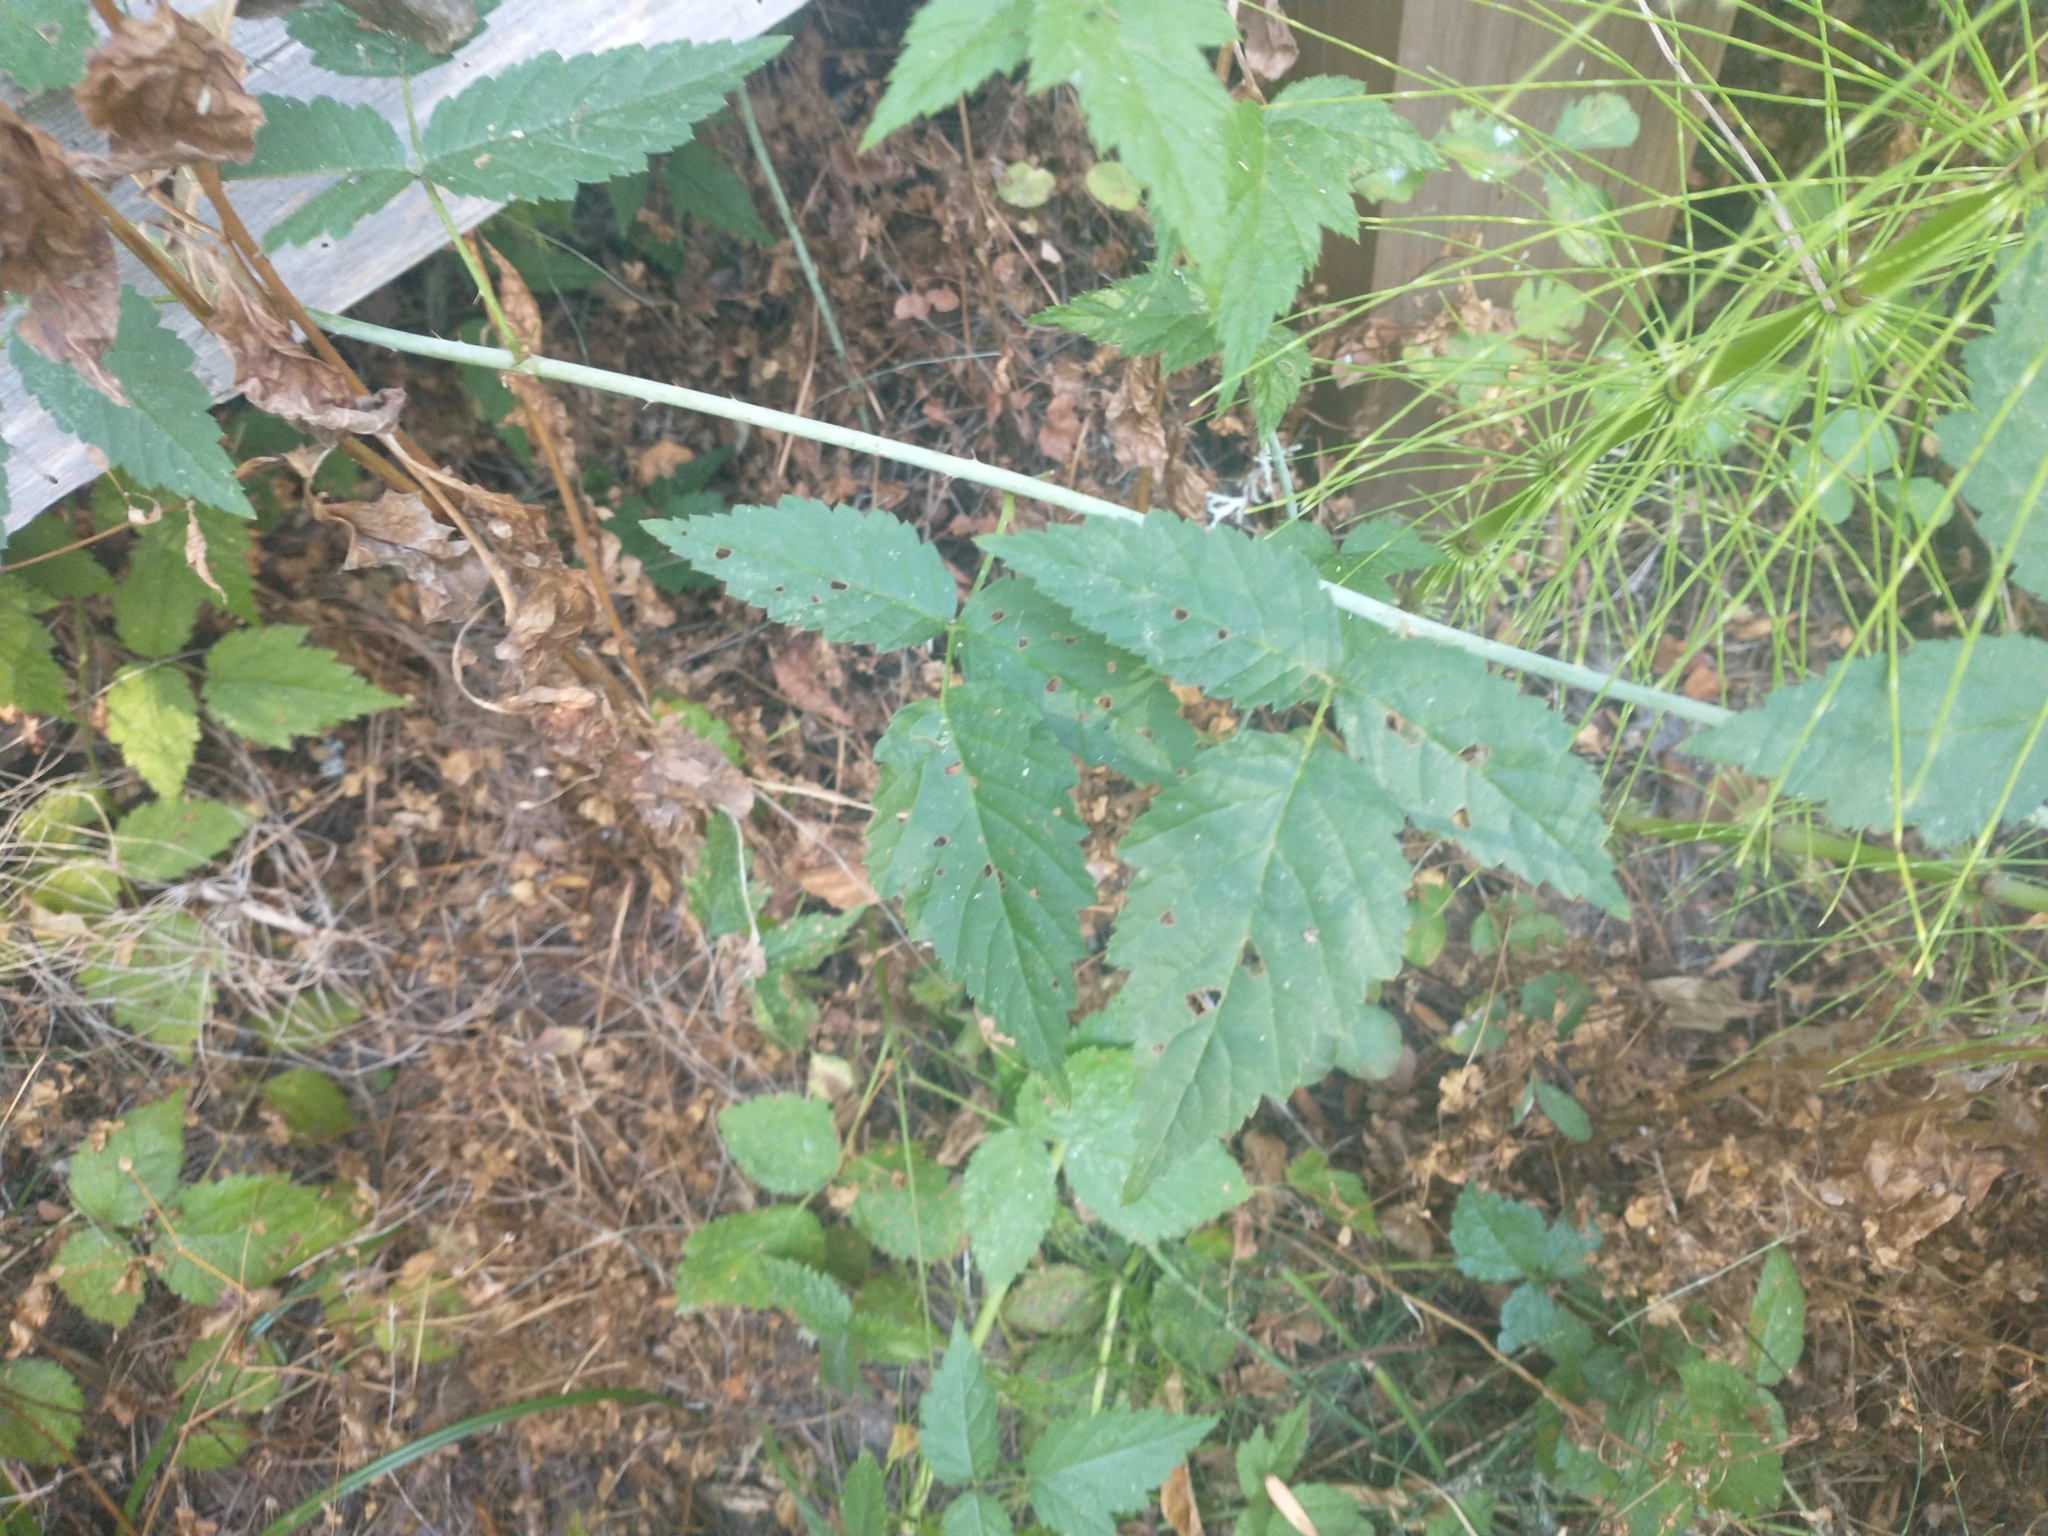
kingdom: Plantae
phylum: Tracheophyta
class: Magnoliopsida
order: Rosales
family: Rosaceae
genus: Rubus
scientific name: Rubus ursinus
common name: Pacific blackberry
